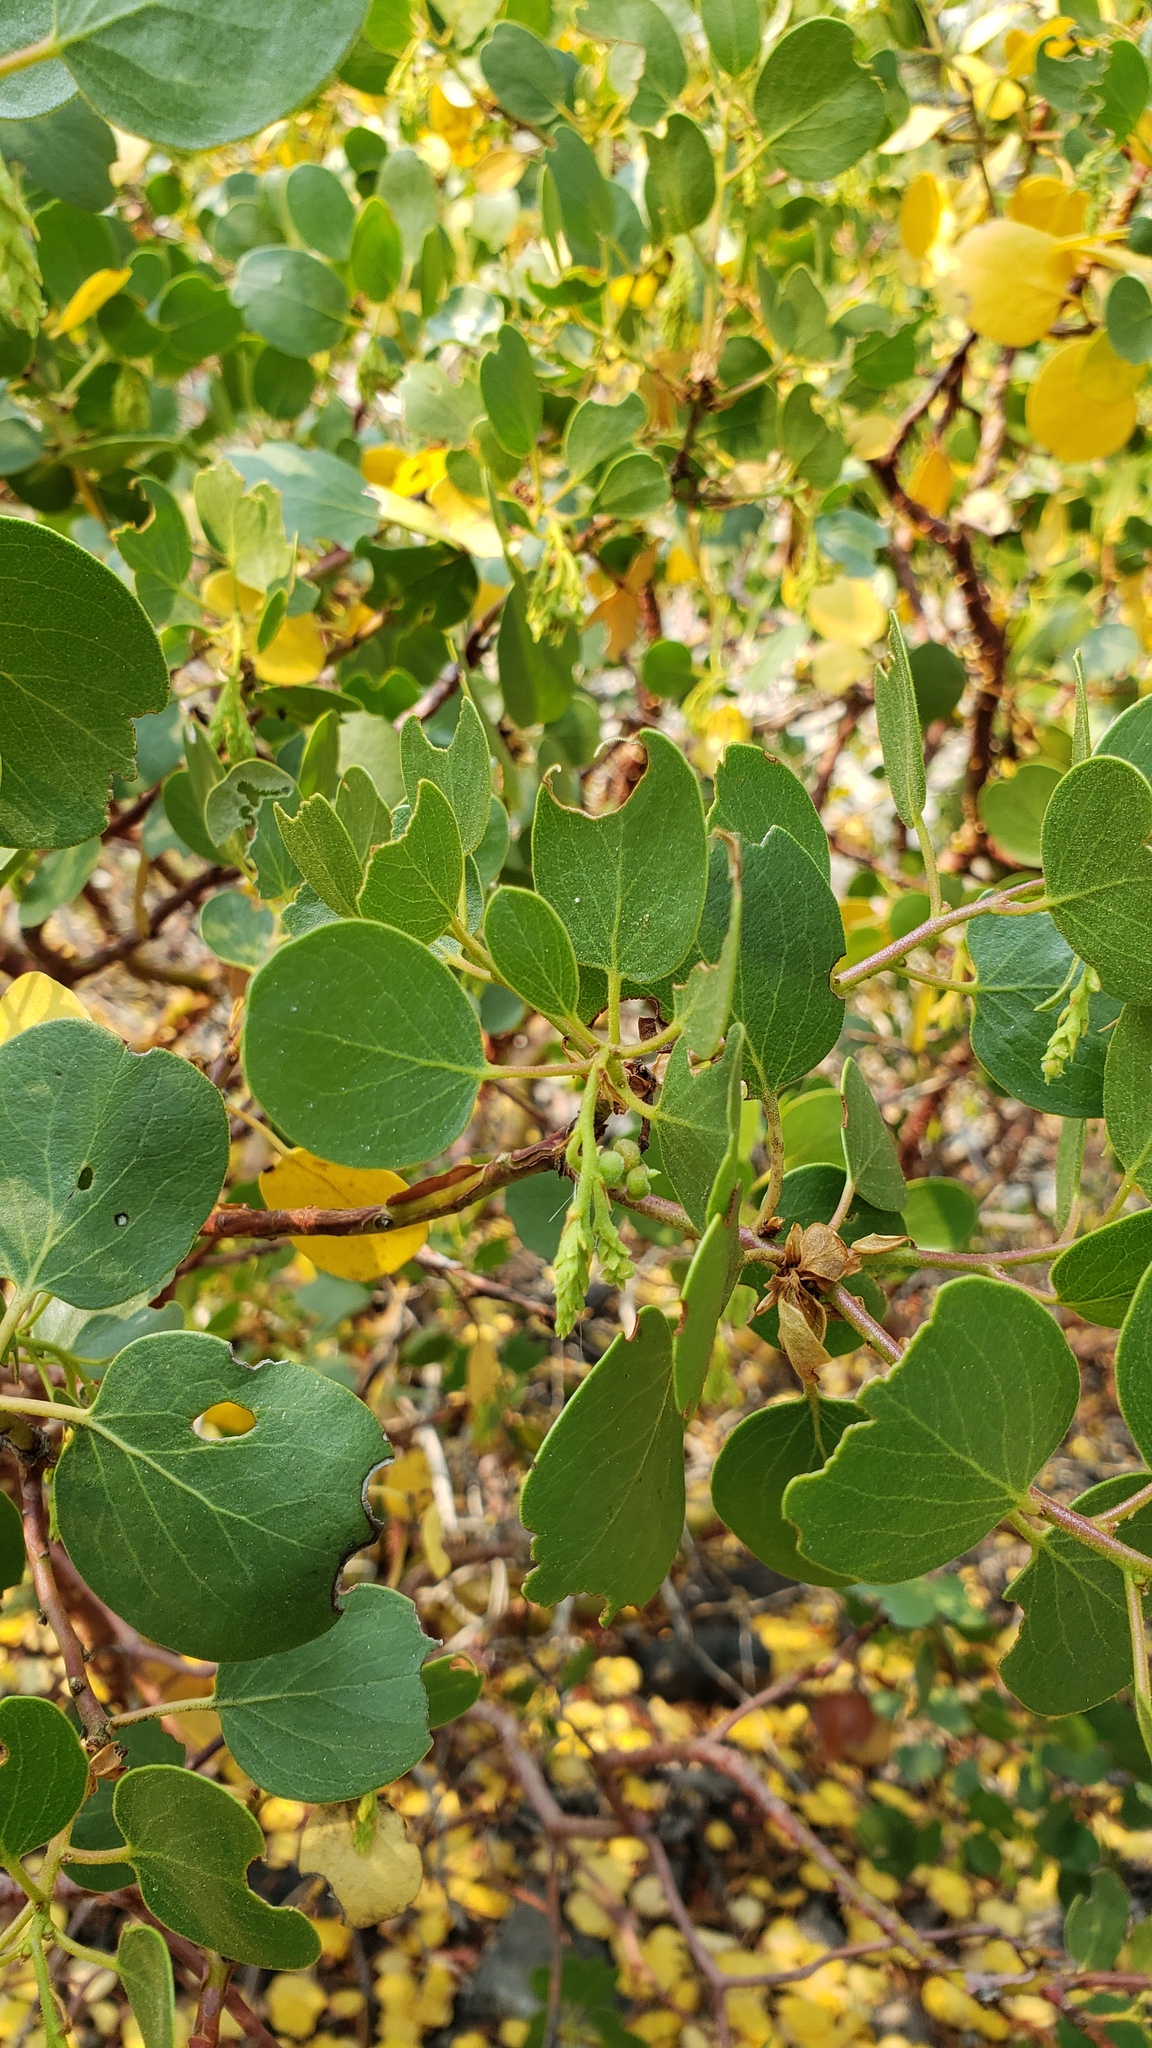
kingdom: Plantae
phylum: Tracheophyta
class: Magnoliopsida
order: Ericales
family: Ericaceae
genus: Arctostaphylos
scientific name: Arctostaphylos patula
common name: Green-leaf manzanita
